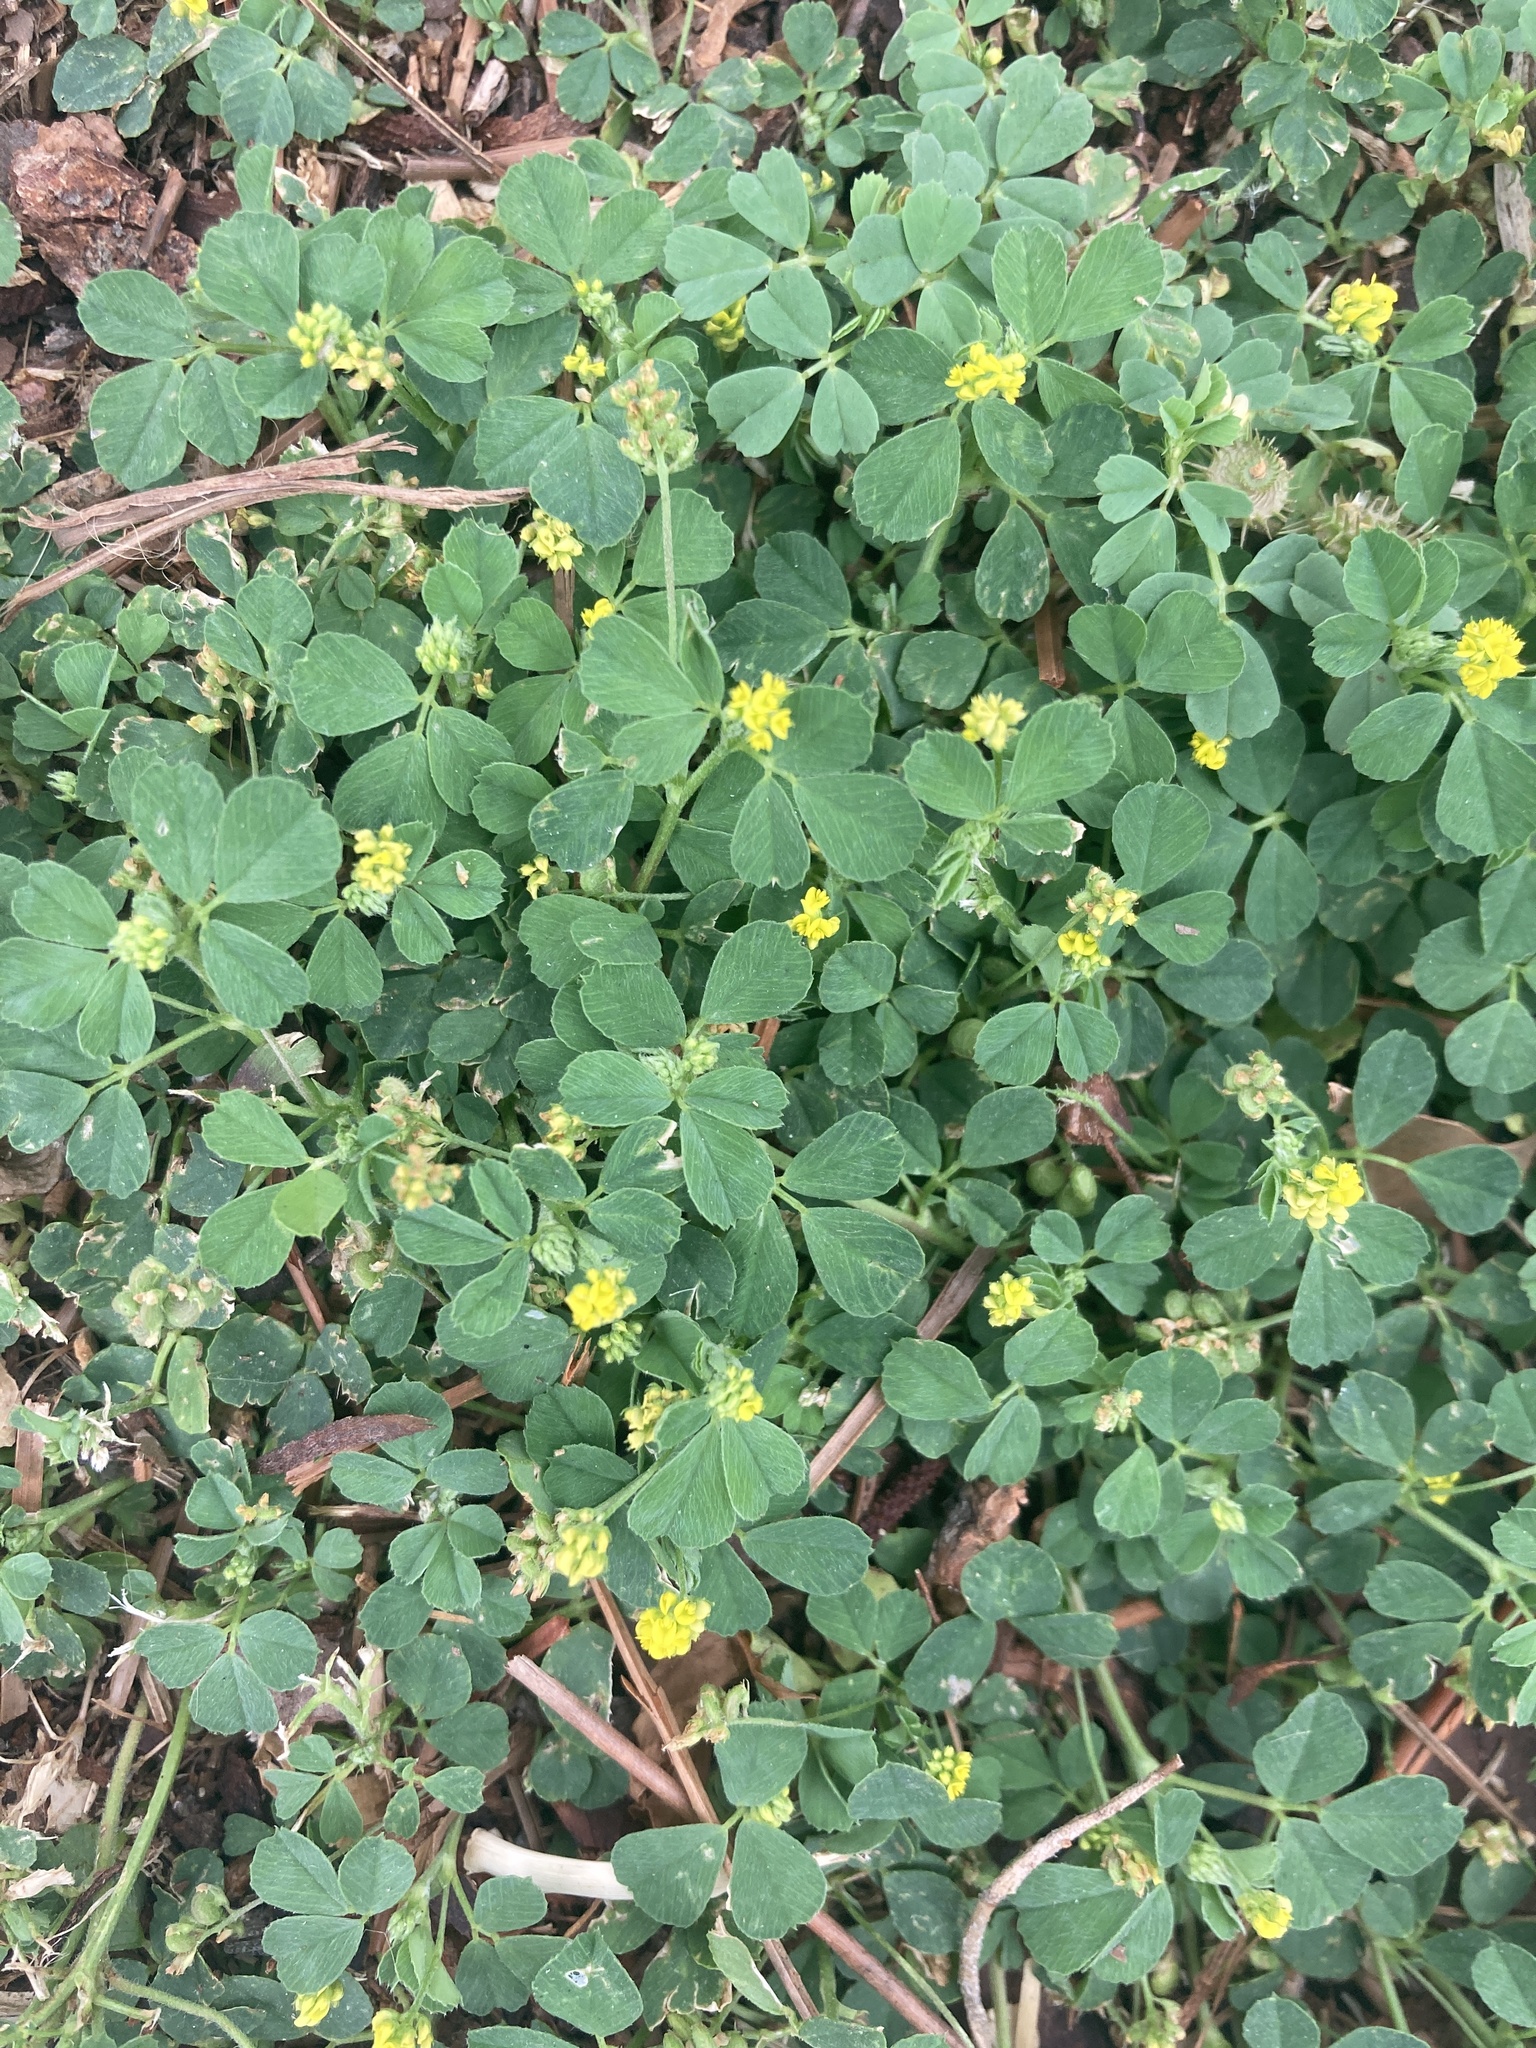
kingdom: Plantae
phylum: Tracheophyta
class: Magnoliopsida
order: Fabales
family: Fabaceae
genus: Medicago
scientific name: Medicago lupulina
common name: Black medick
